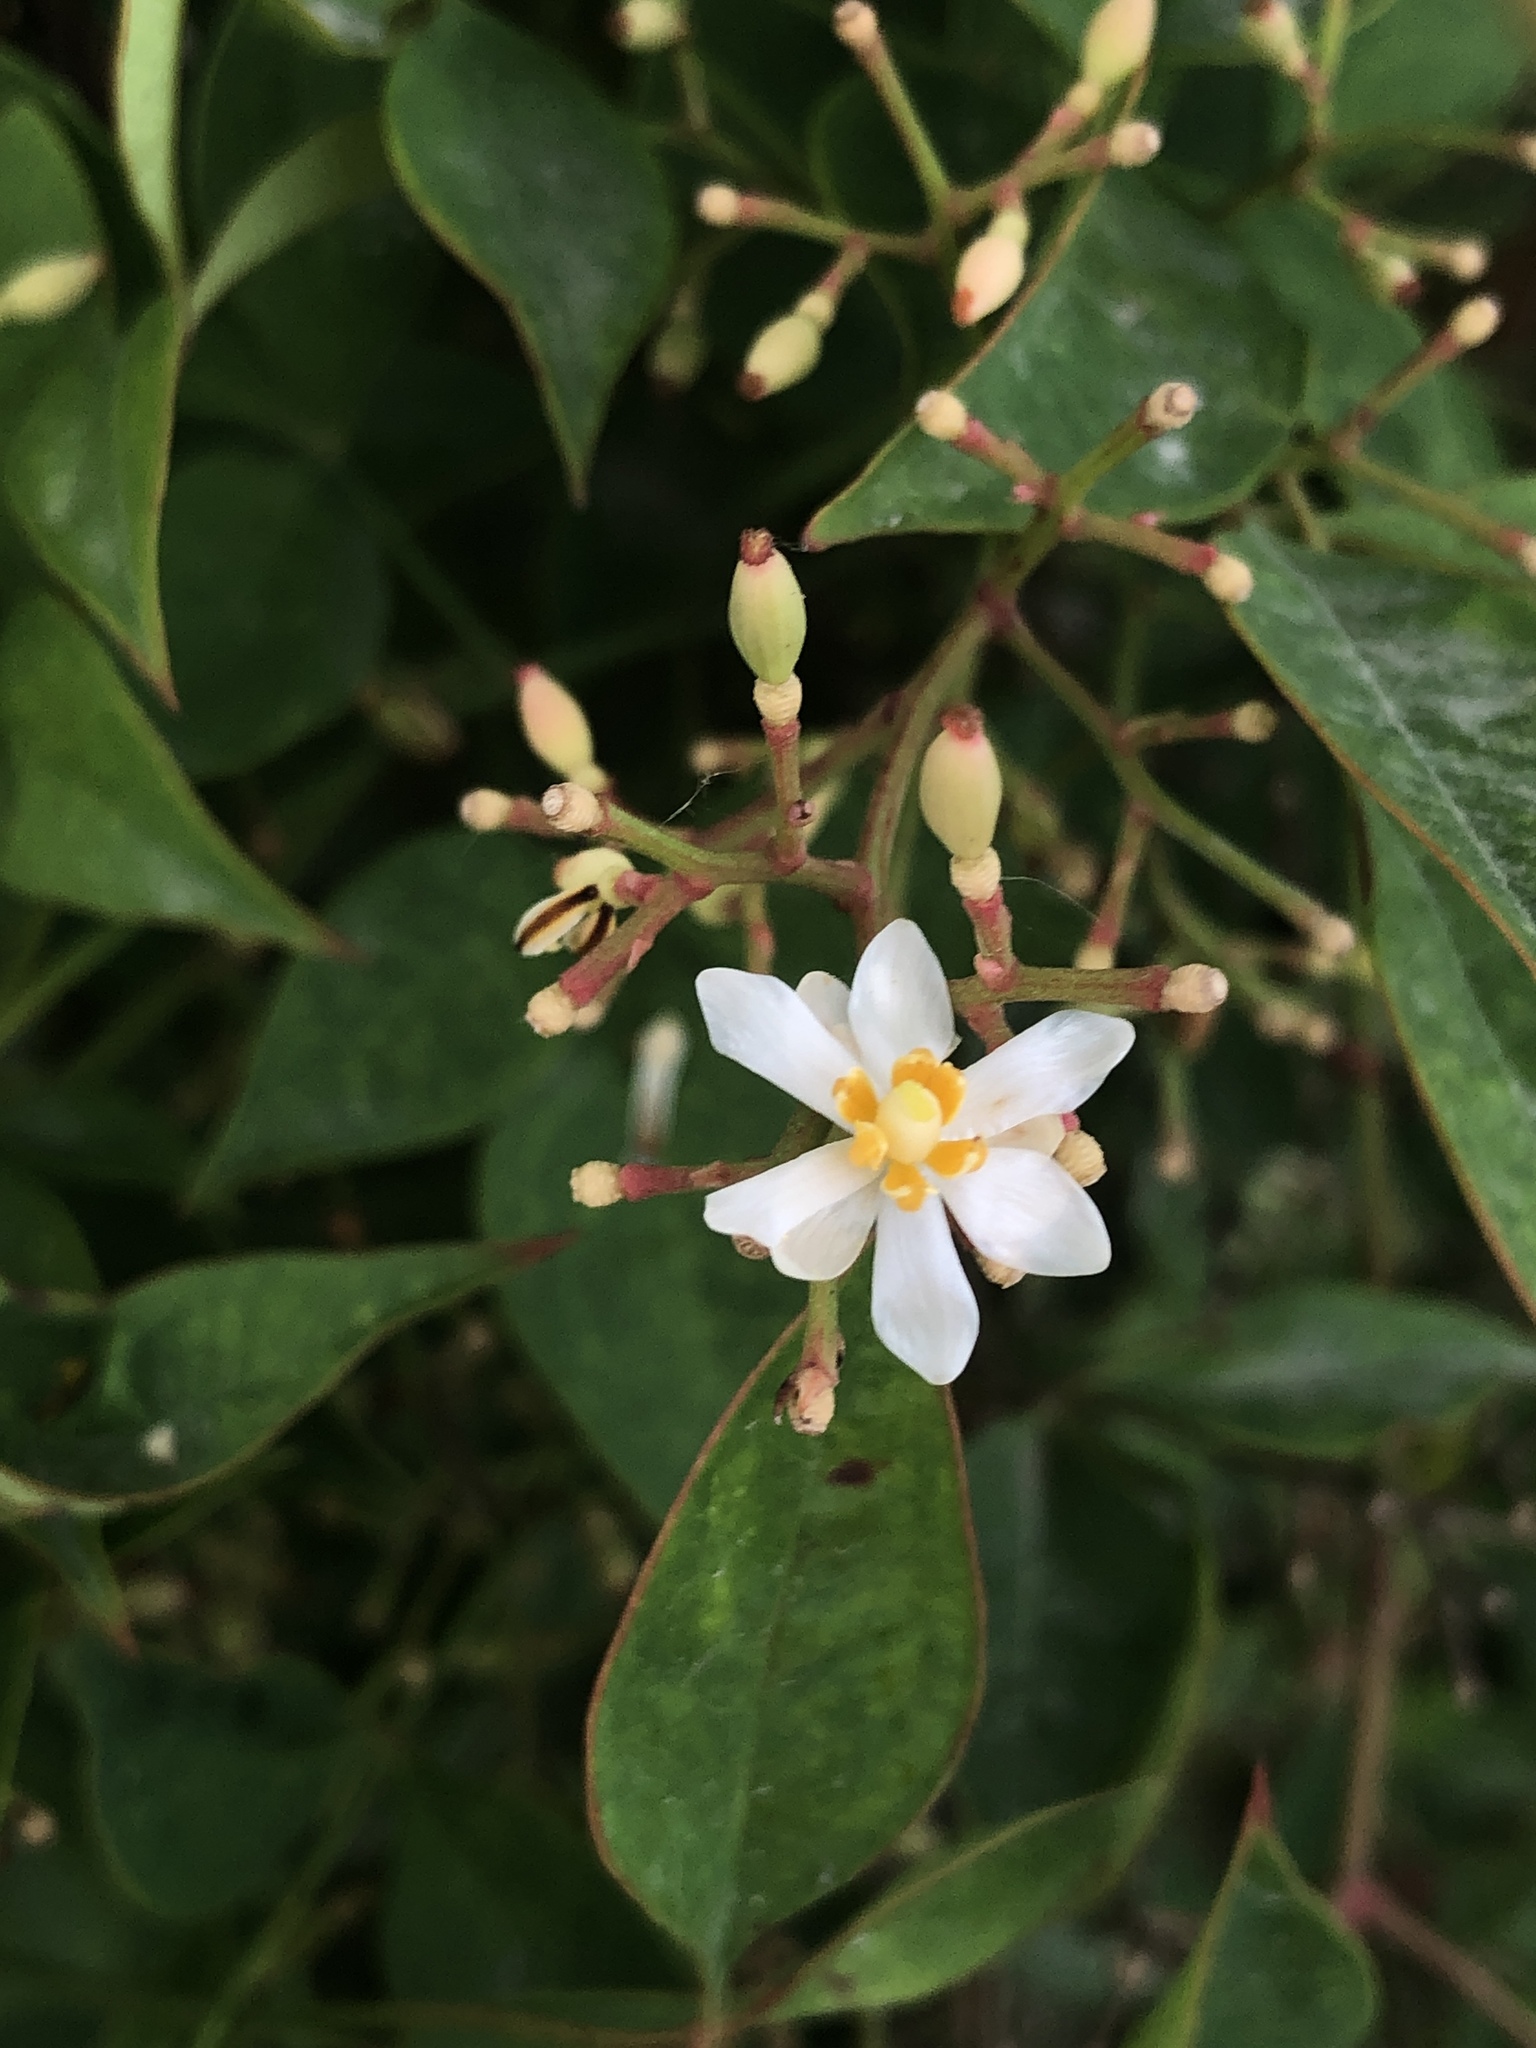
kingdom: Plantae
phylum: Tracheophyta
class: Magnoliopsida
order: Ranunculales
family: Berberidaceae
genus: Nandina
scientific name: Nandina domestica
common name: Sacred bamboo
